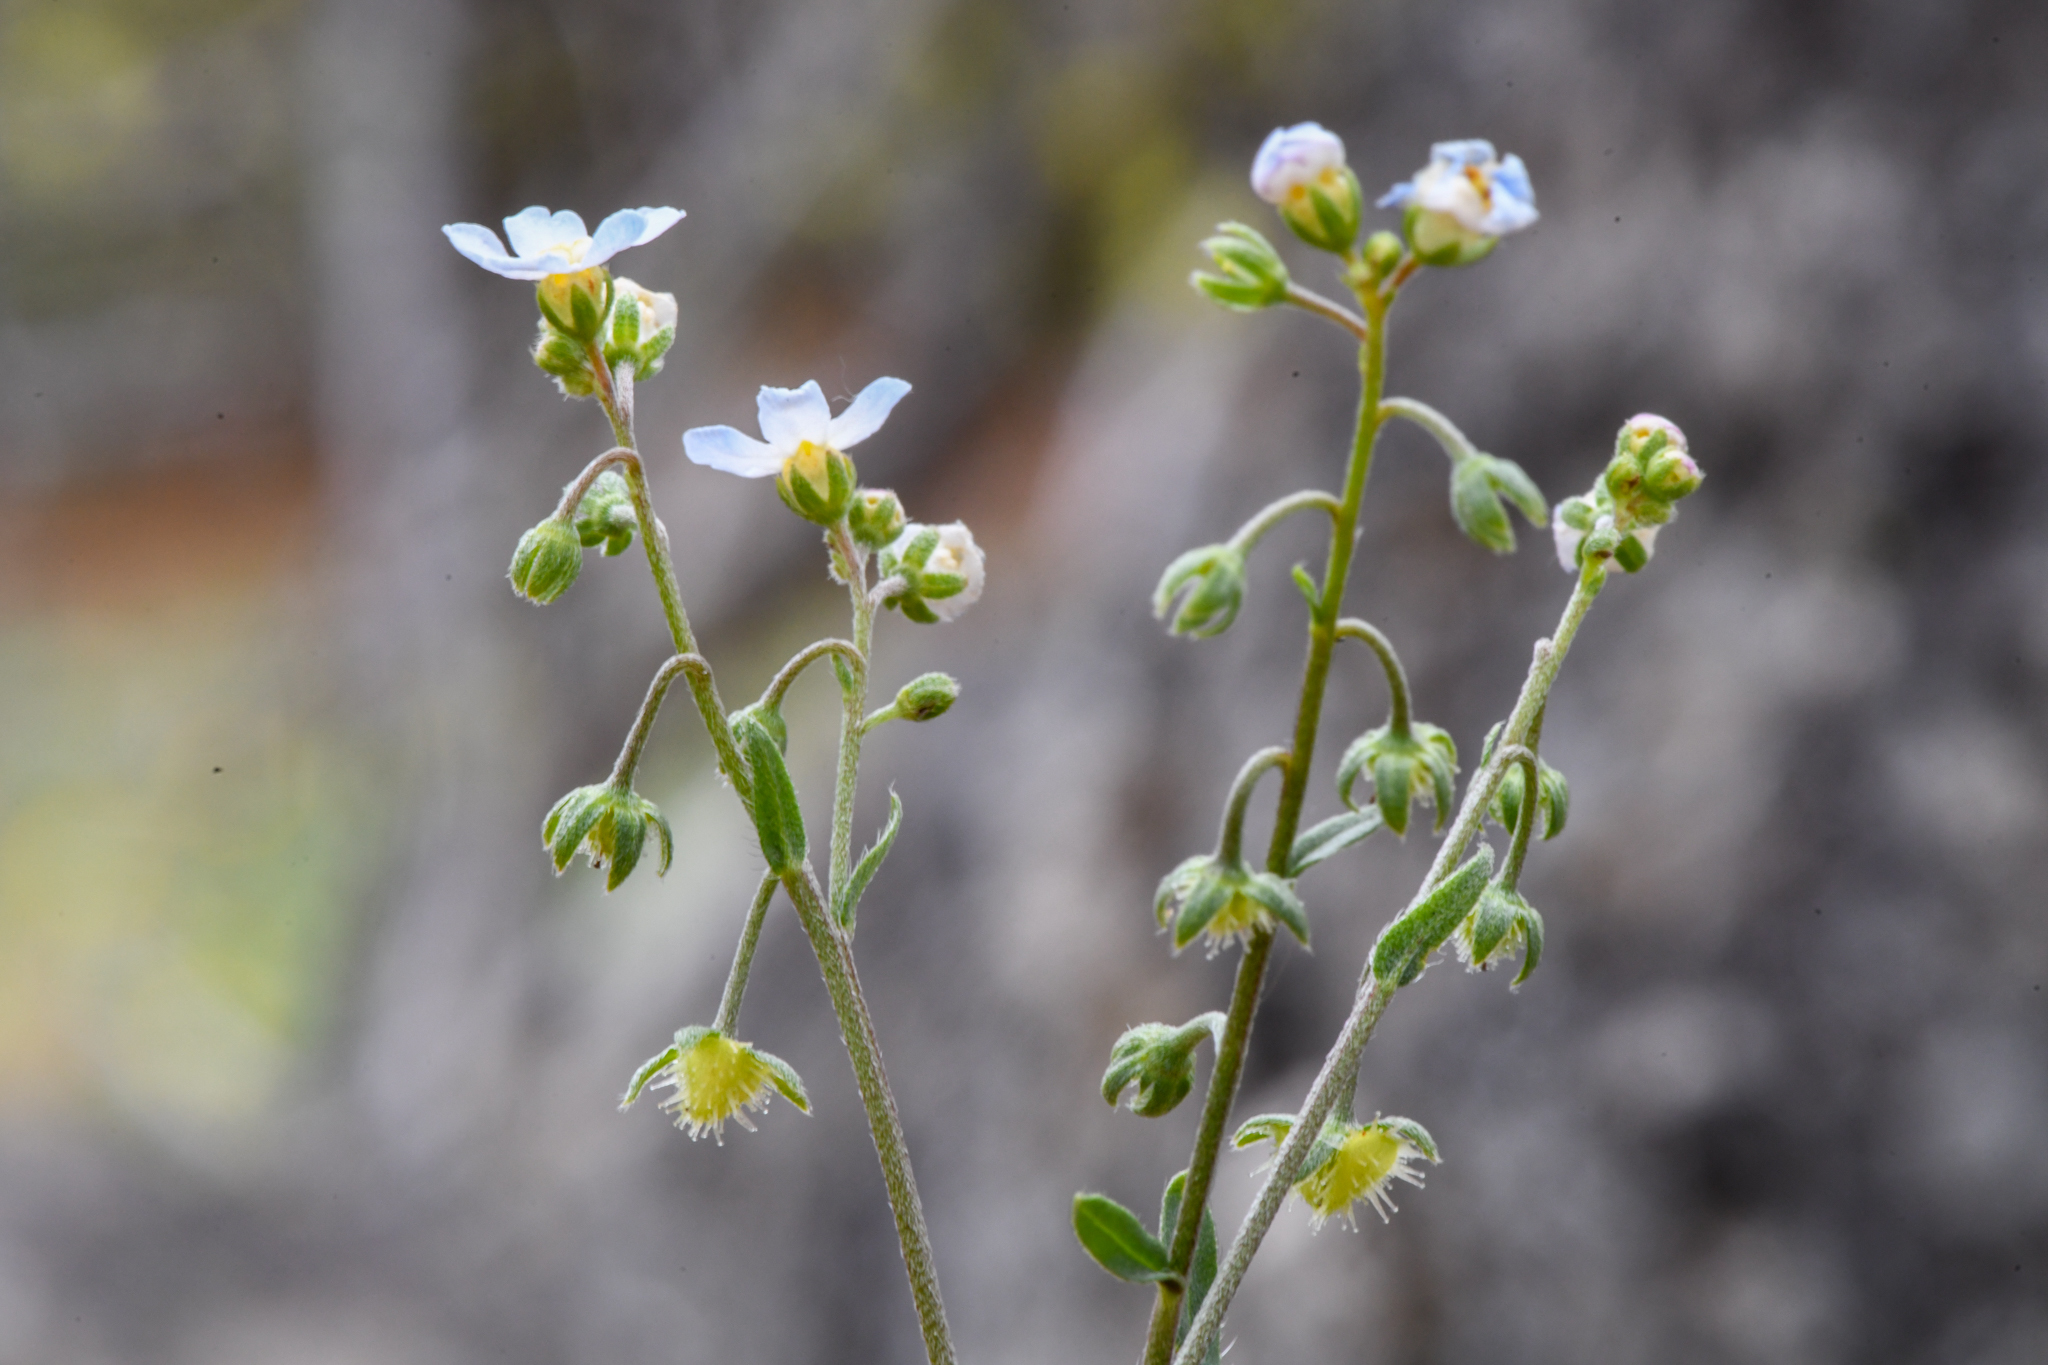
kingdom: Plantae
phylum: Tracheophyta
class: Magnoliopsida
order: Boraginales
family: Boraginaceae
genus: Hackelia
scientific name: Hackelia cusickii
